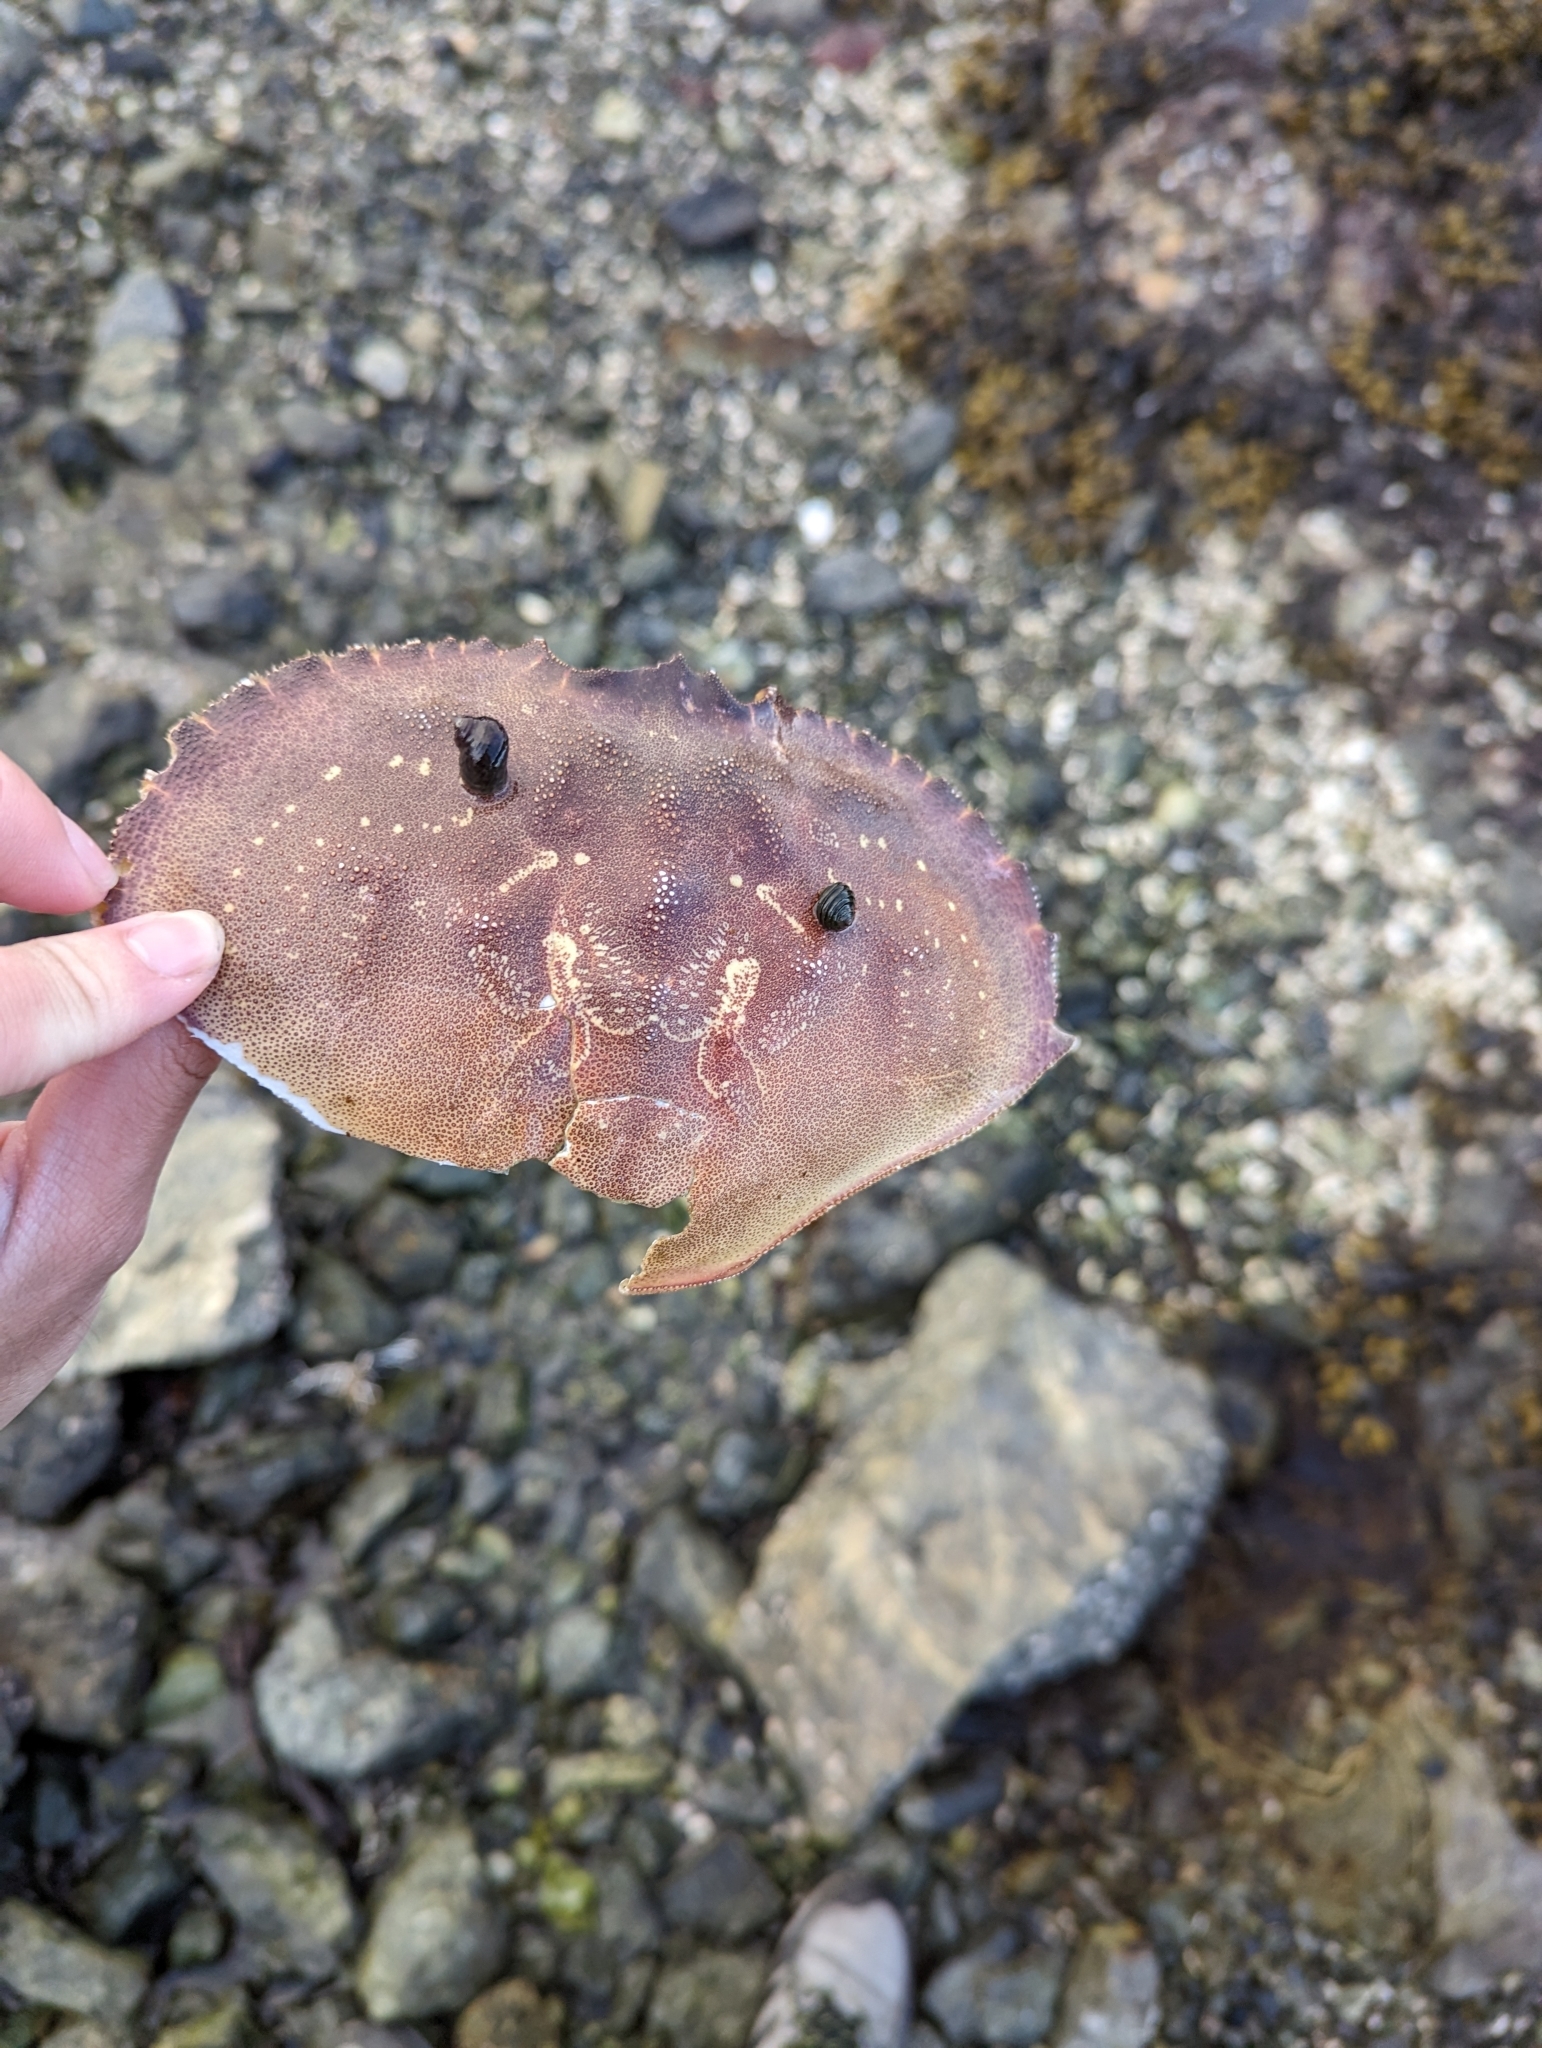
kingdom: Animalia
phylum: Arthropoda
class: Malacostraca
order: Decapoda
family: Cancridae
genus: Metacarcinus
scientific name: Metacarcinus magister
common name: Californian crab
